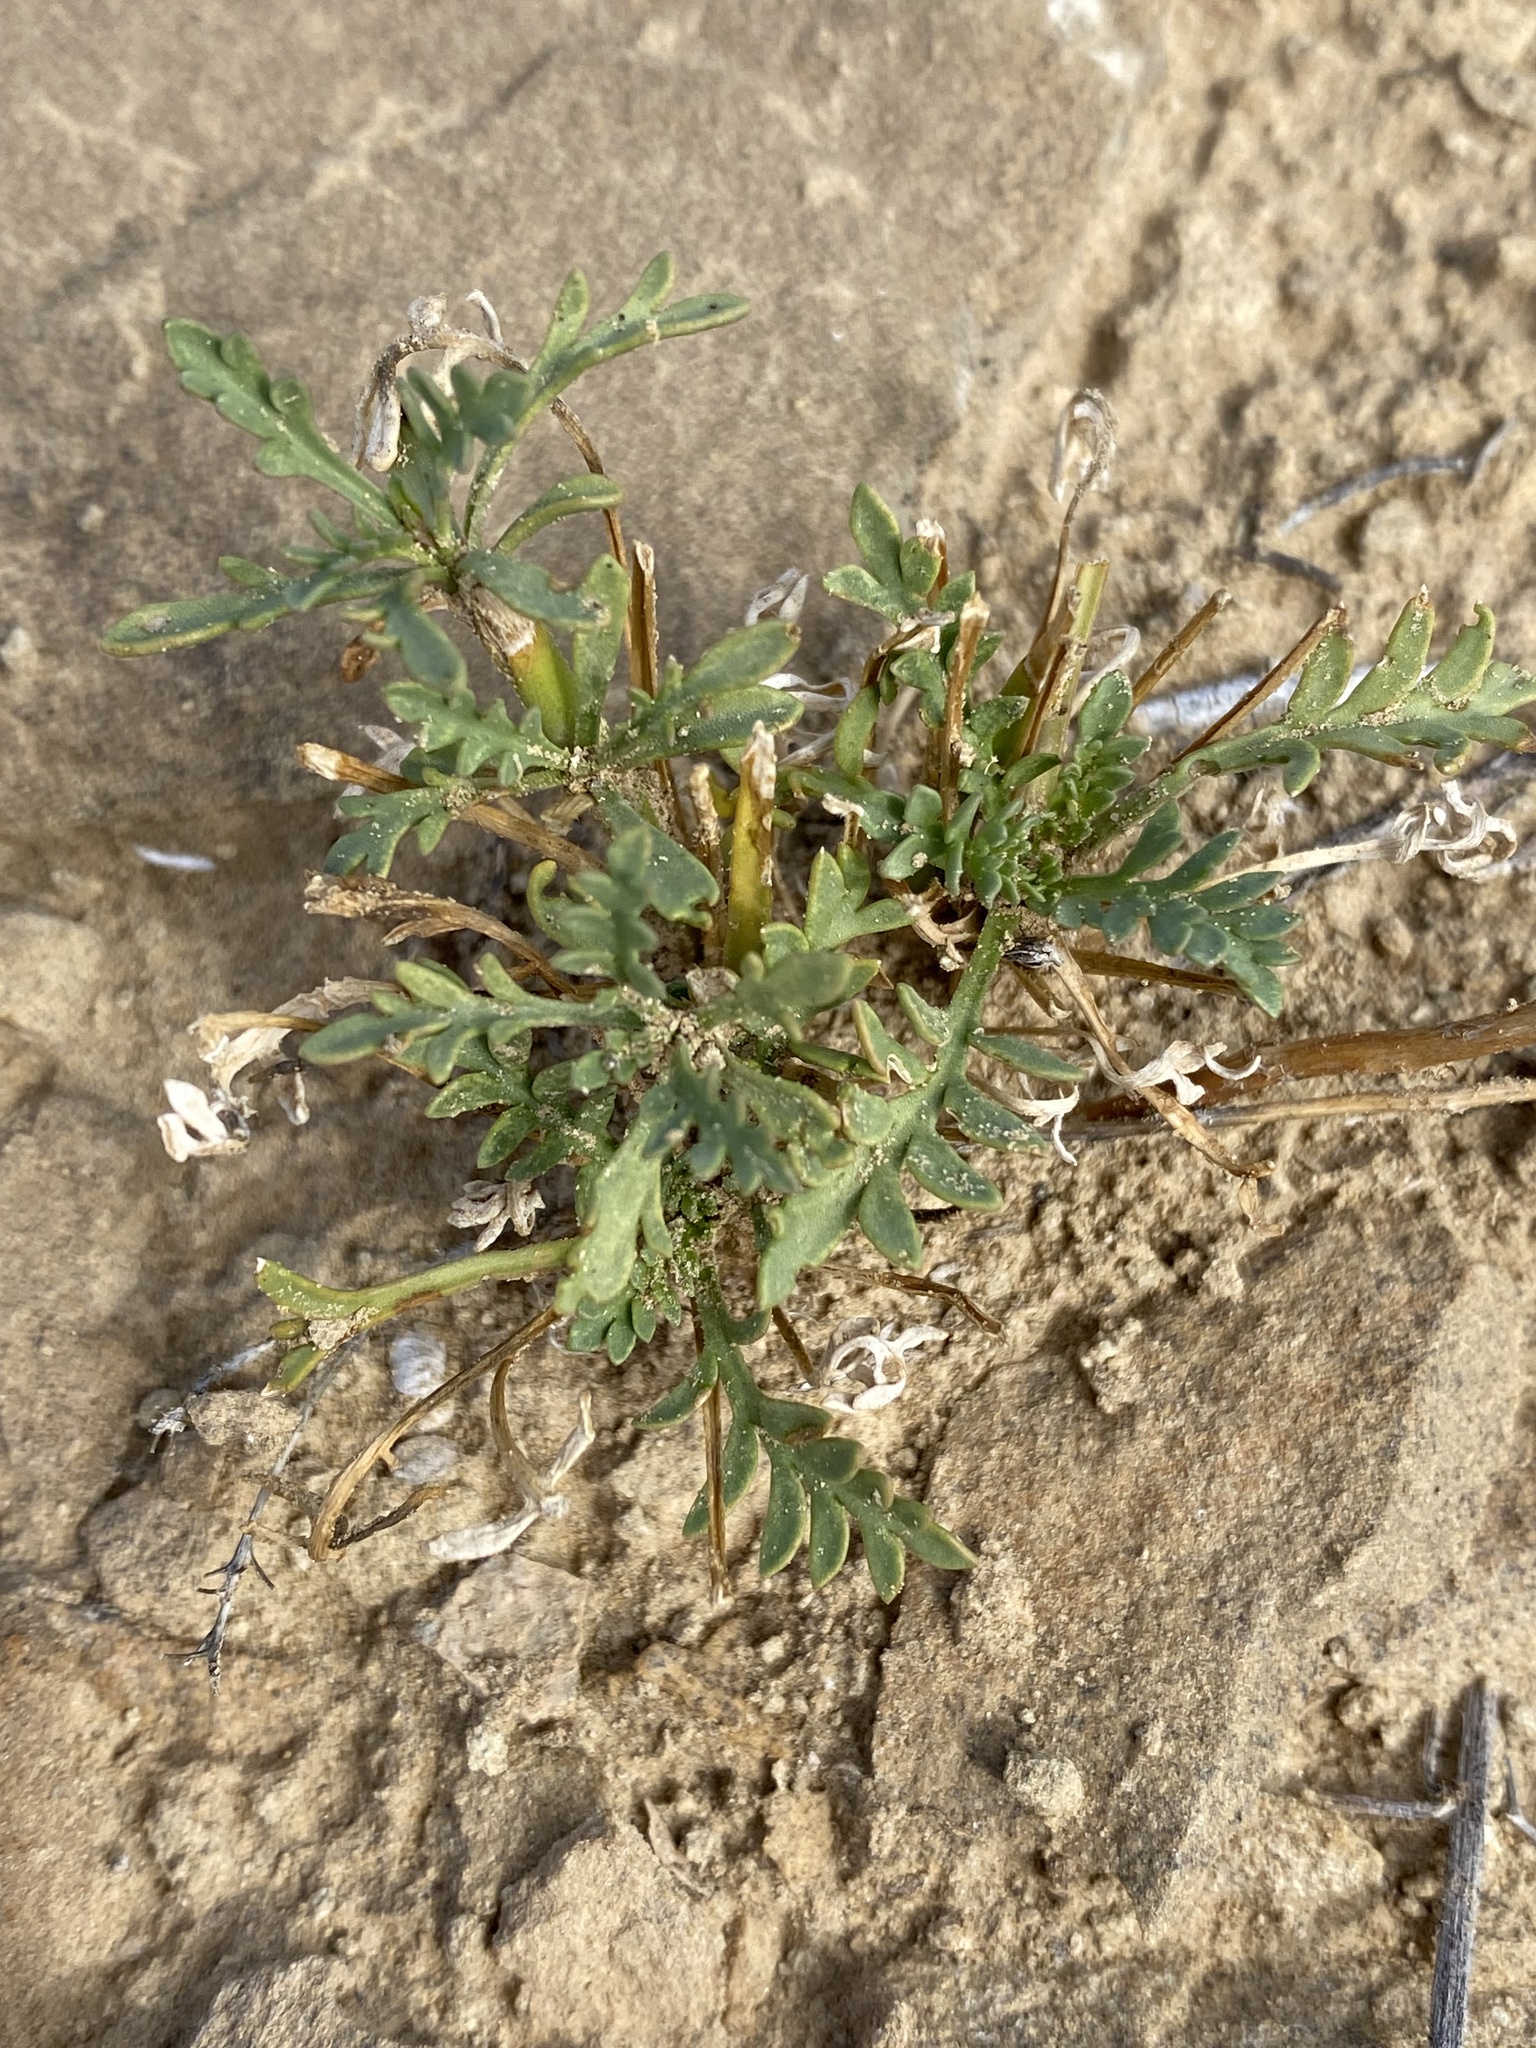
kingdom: Plantae
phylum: Tracheophyta
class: Magnoliopsida
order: Brassicales
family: Brassicaceae
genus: Lepidium
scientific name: Lepidium montanum
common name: Mountain pepperplant
